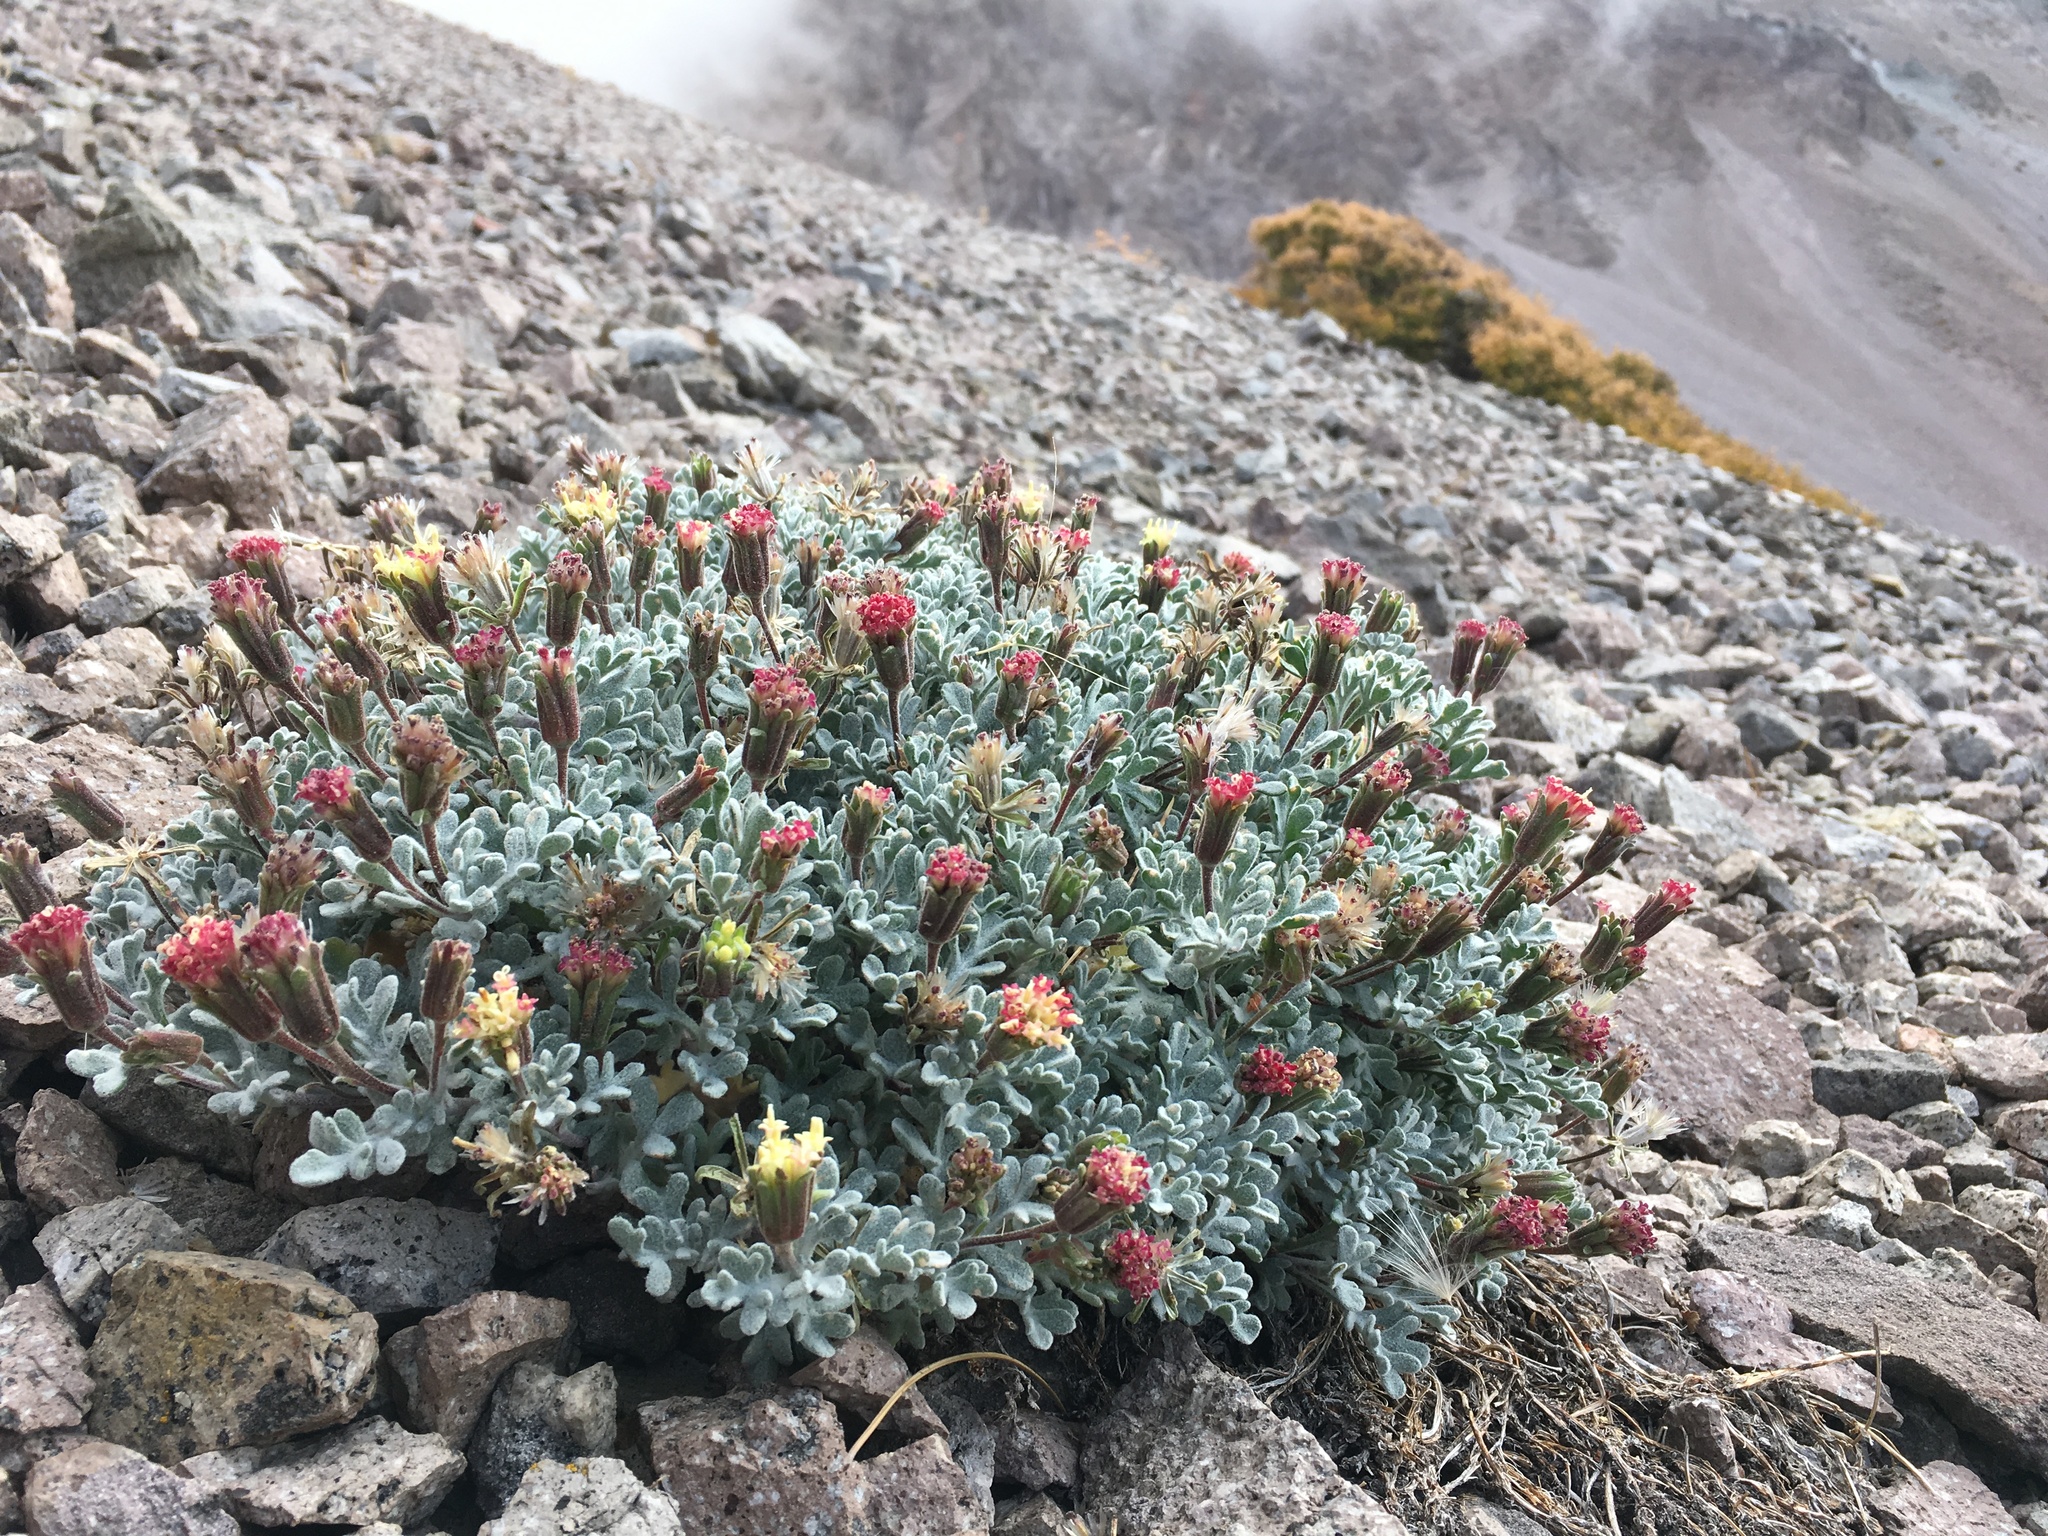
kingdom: Plantae
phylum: Tracheophyta
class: Magnoliopsida
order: Asterales
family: Asteraceae
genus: Chaenactis
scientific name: Chaenactis nevadensis
